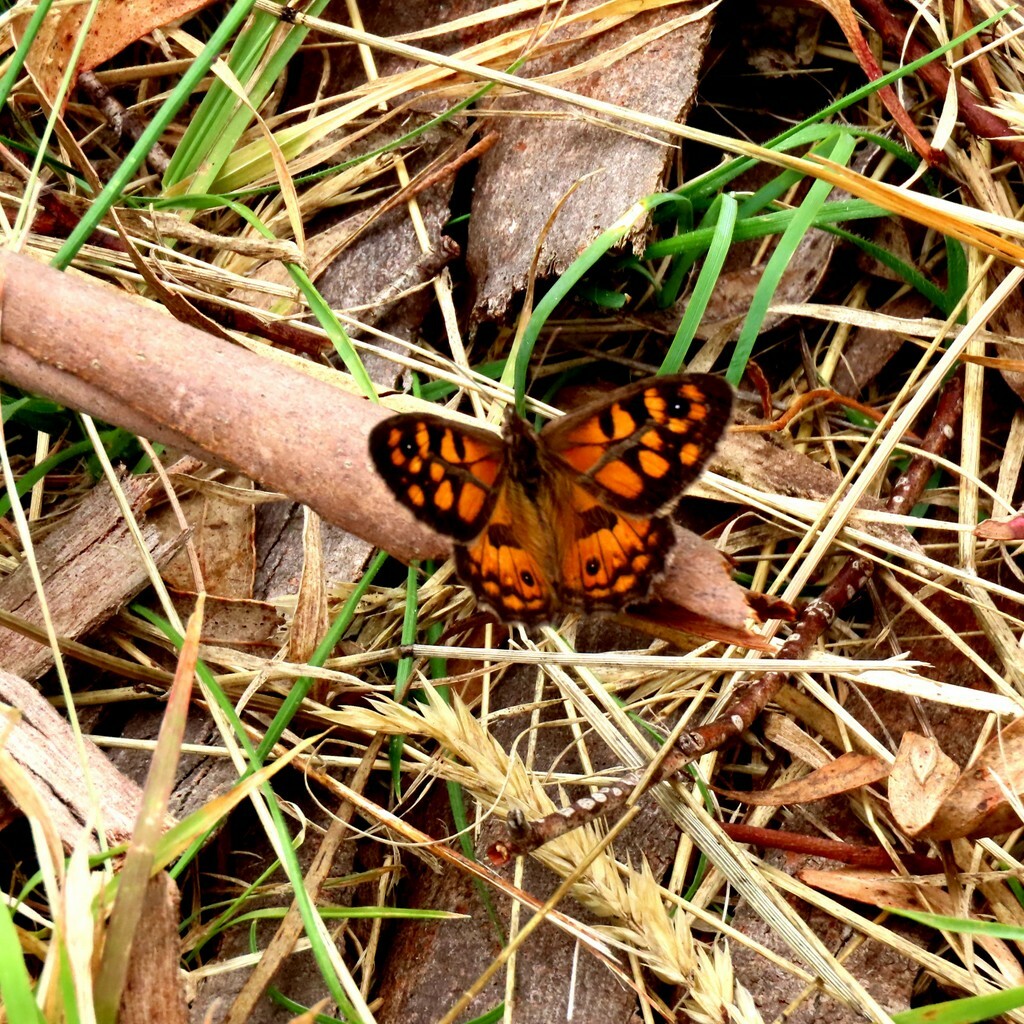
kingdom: Animalia
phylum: Arthropoda
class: Insecta
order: Lepidoptera
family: Nymphalidae
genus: Geitoneura
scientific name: Geitoneura klugii
